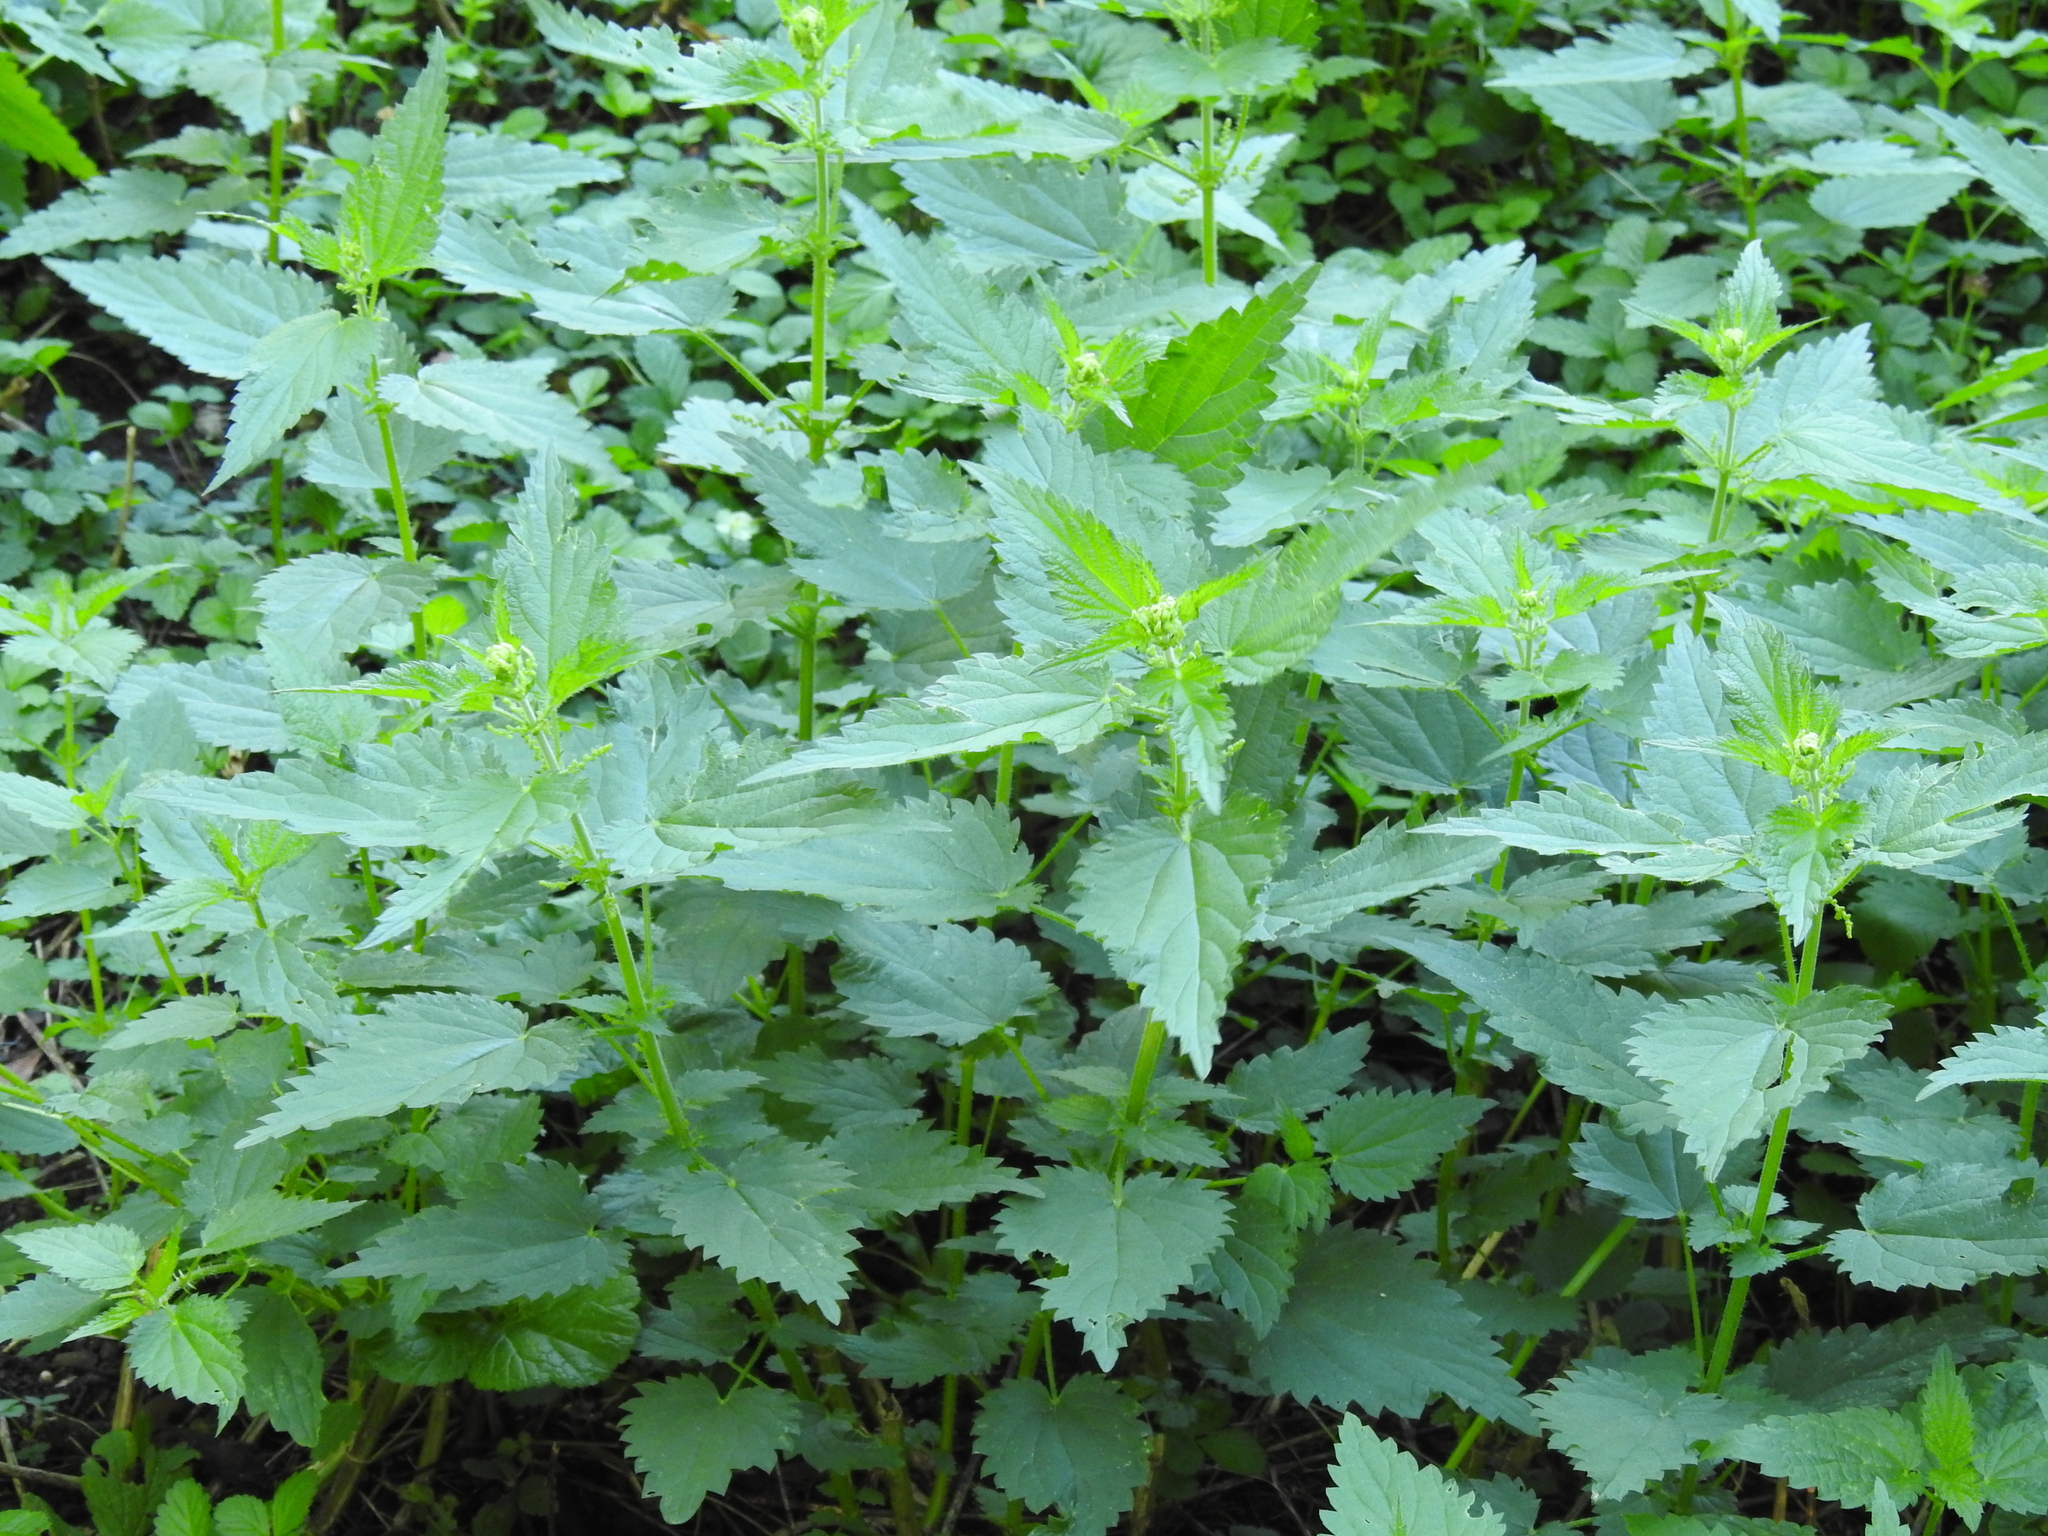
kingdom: Plantae
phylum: Tracheophyta
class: Magnoliopsida
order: Rosales
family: Urticaceae
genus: Urtica
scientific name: Urtica dioica
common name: Common nettle
